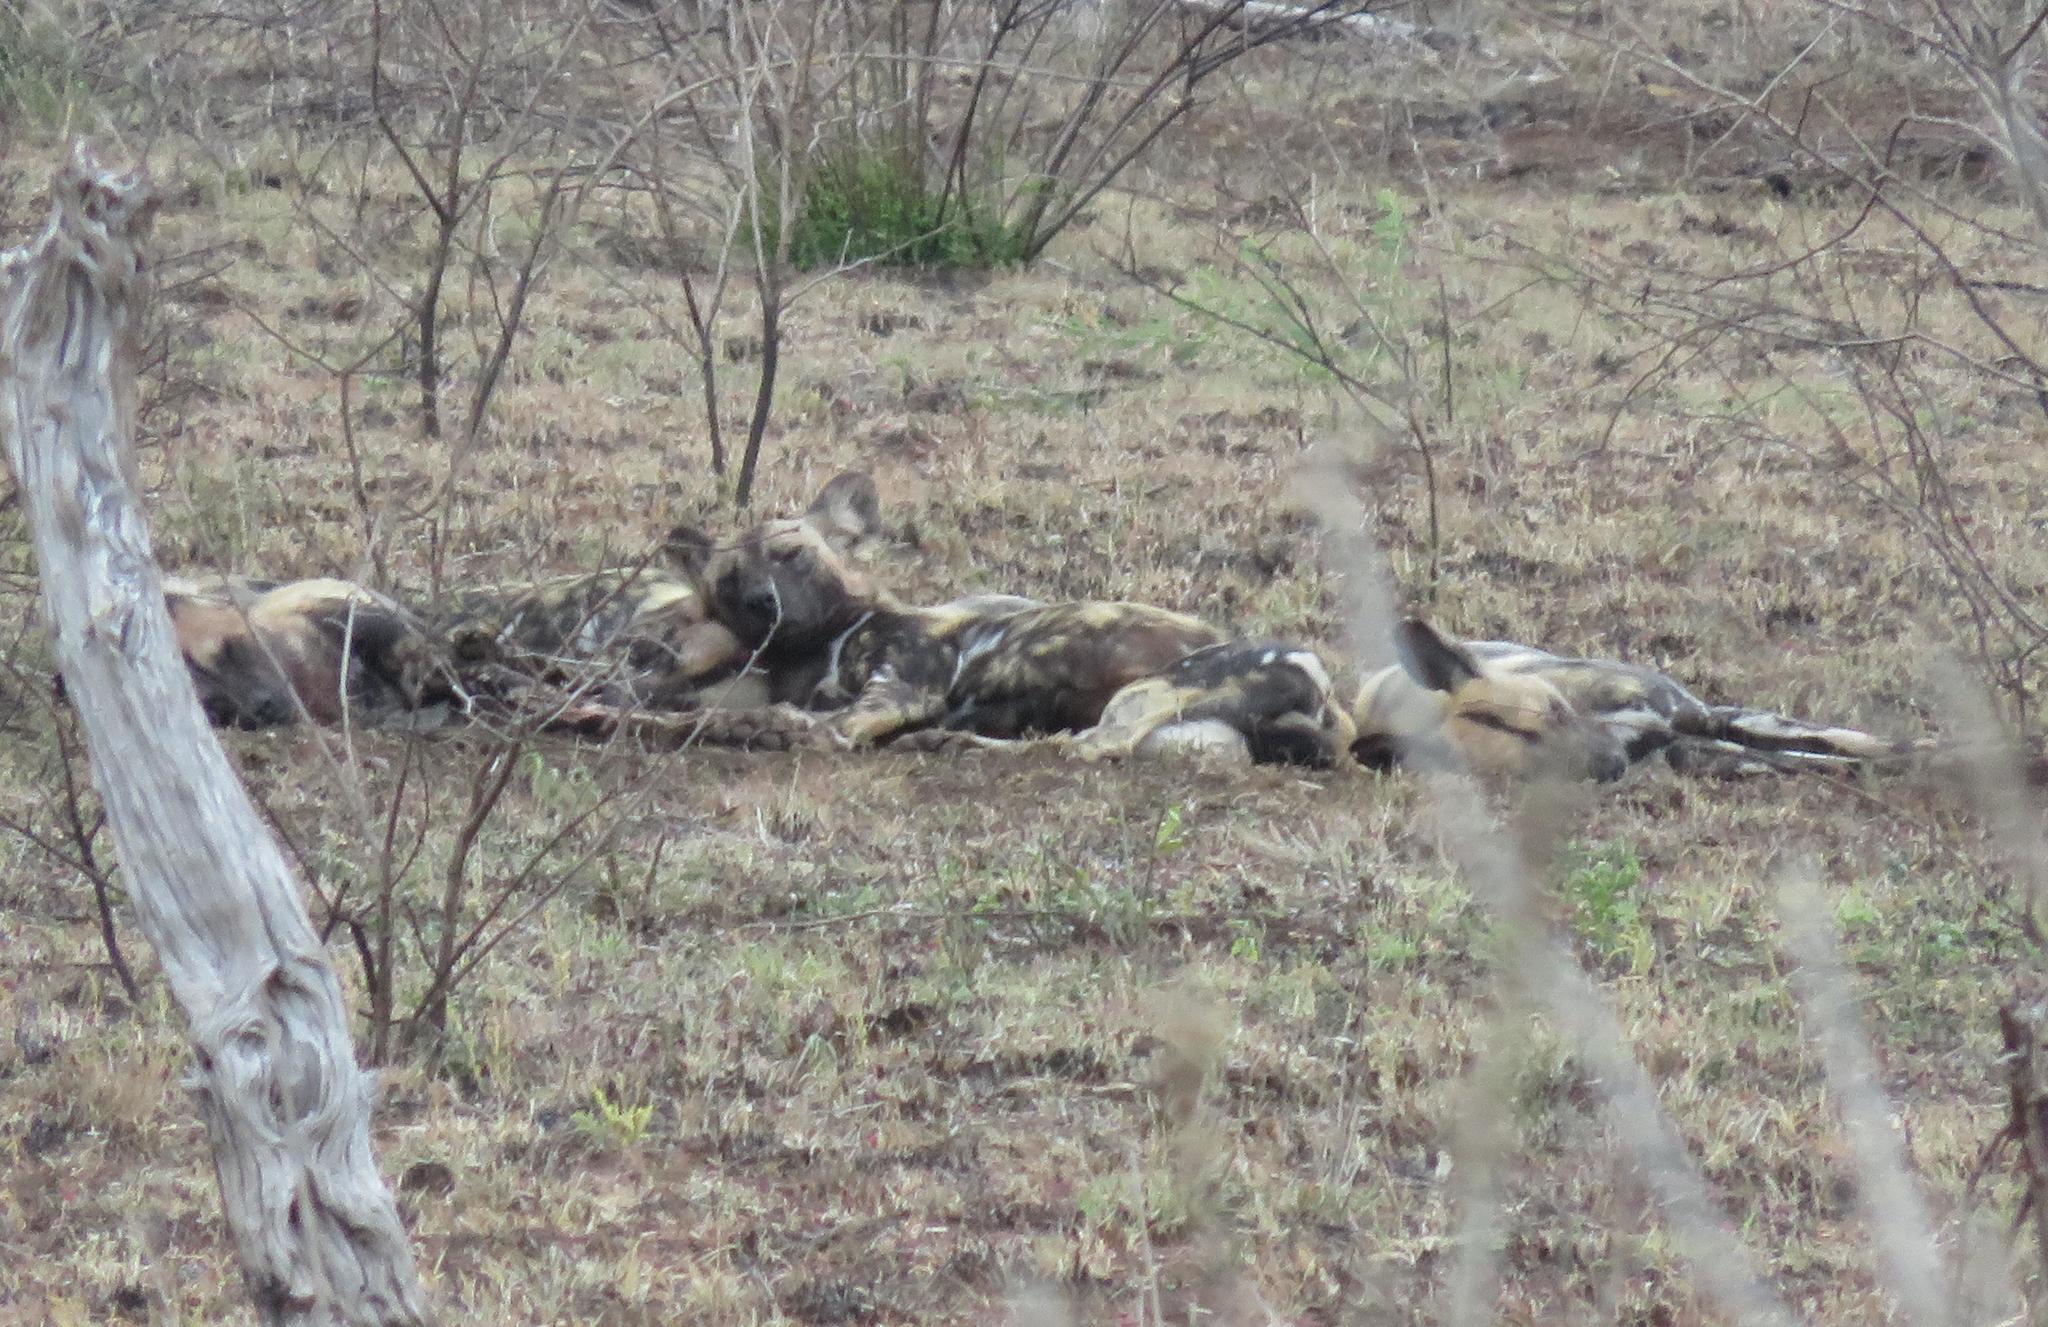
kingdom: Animalia
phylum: Chordata
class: Mammalia
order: Carnivora
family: Canidae
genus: Lycaon
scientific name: Lycaon pictus
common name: African wild dog
